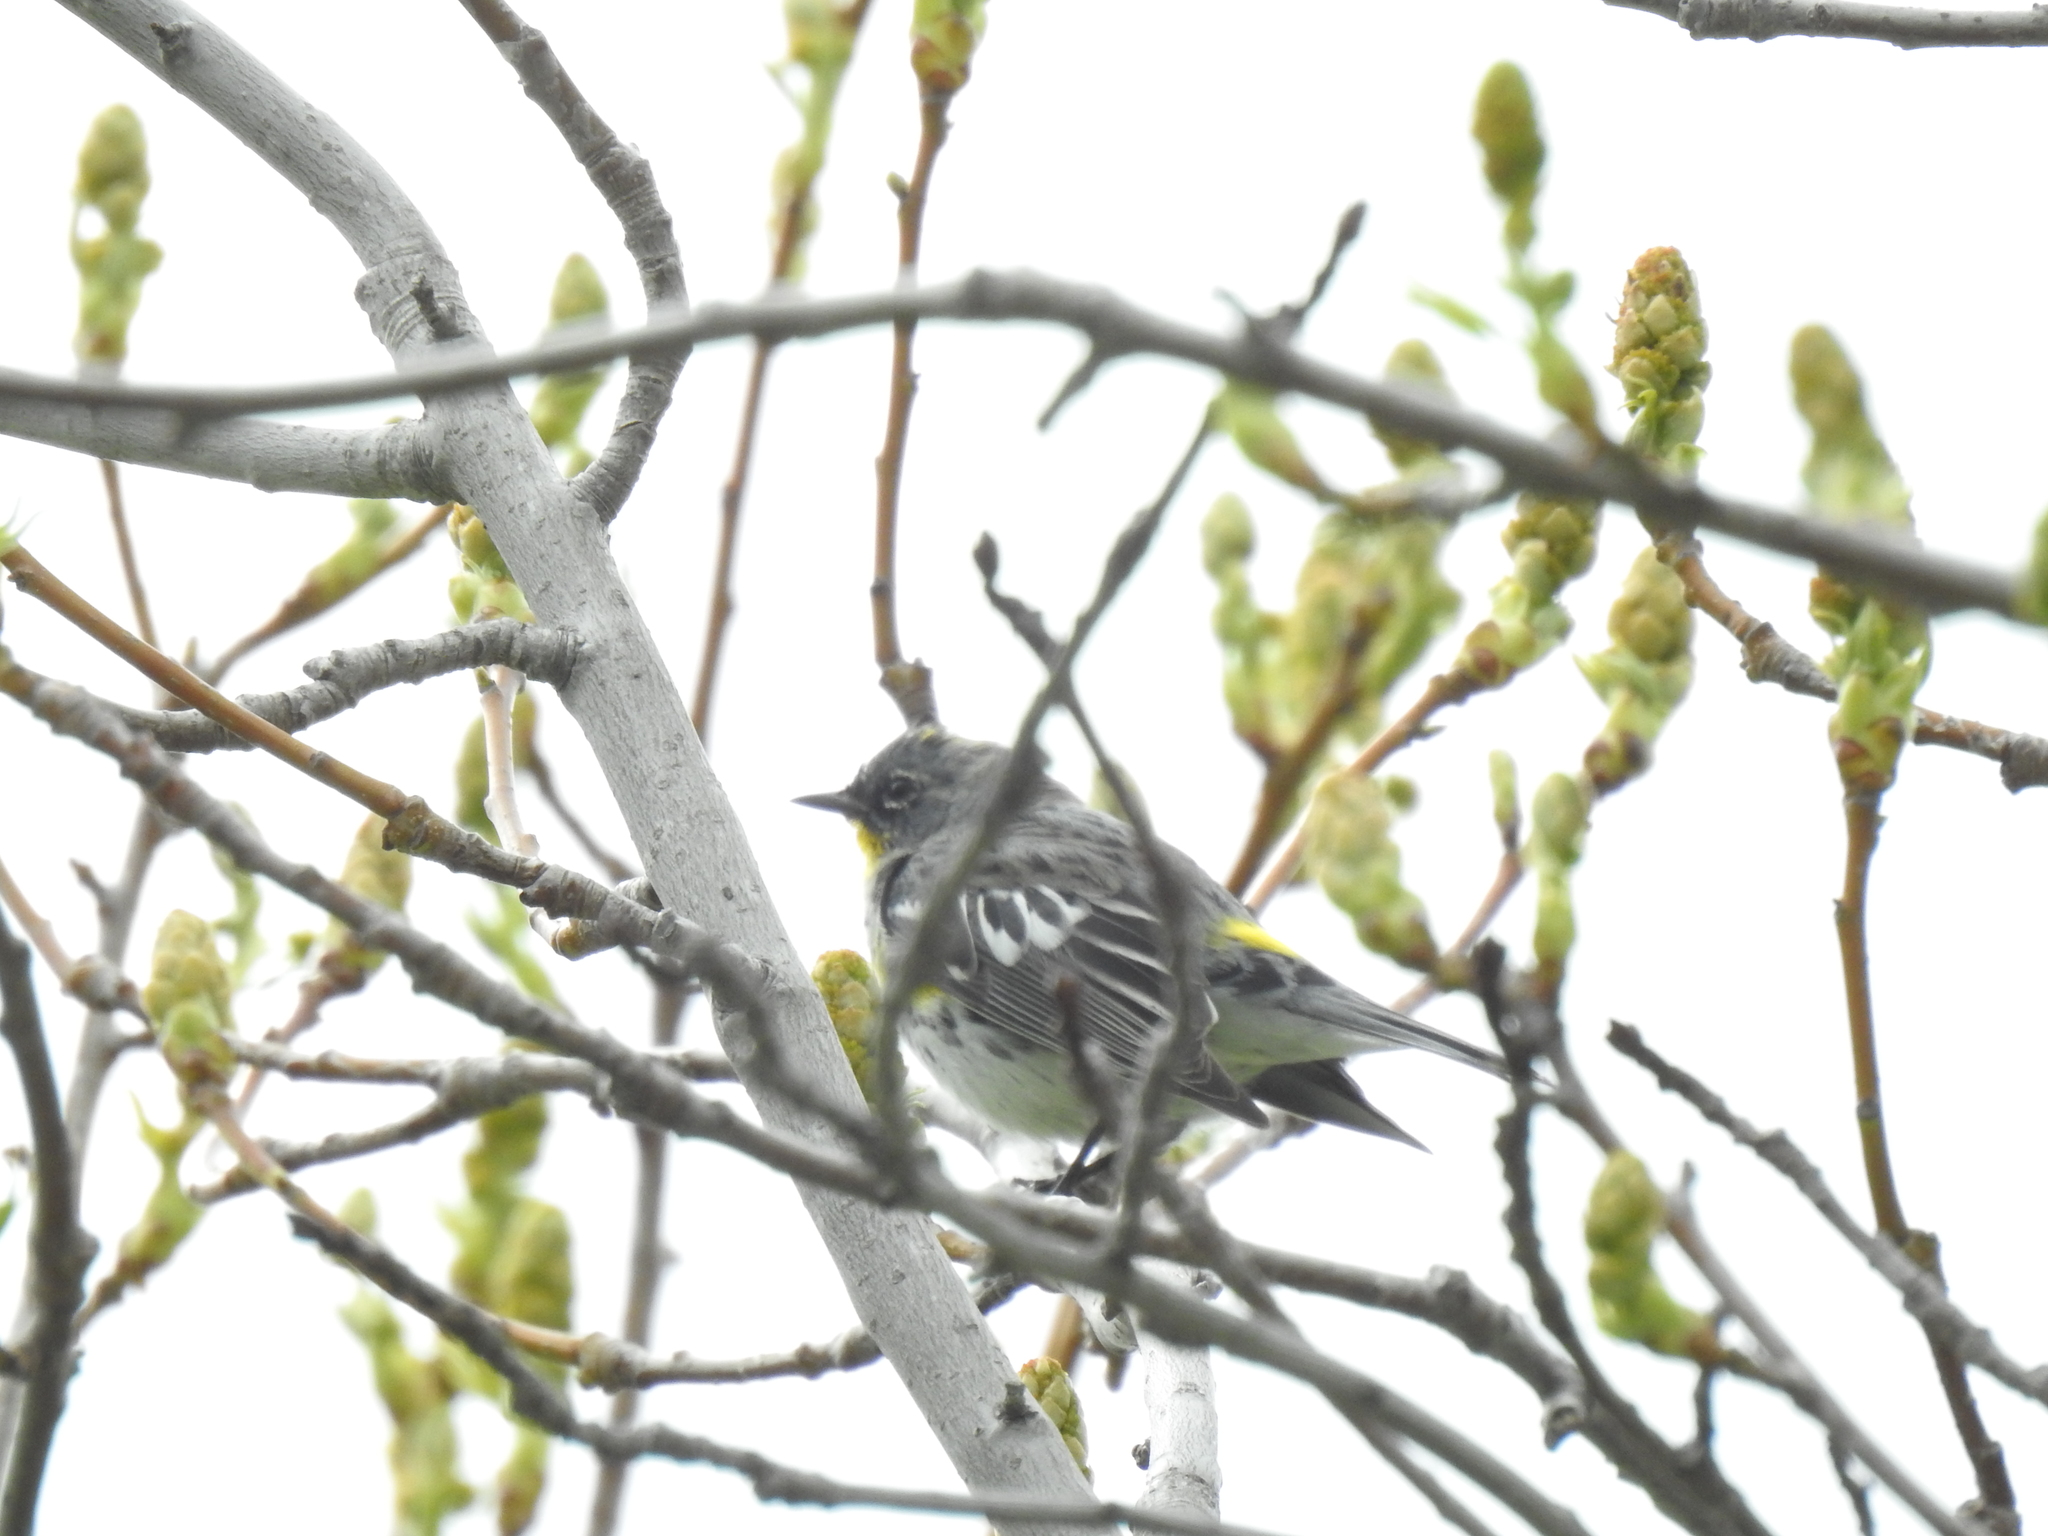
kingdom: Animalia
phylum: Chordata
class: Aves
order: Passeriformes
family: Parulidae
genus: Setophaga
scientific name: Setophaga coronata
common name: Myrtle warbler
